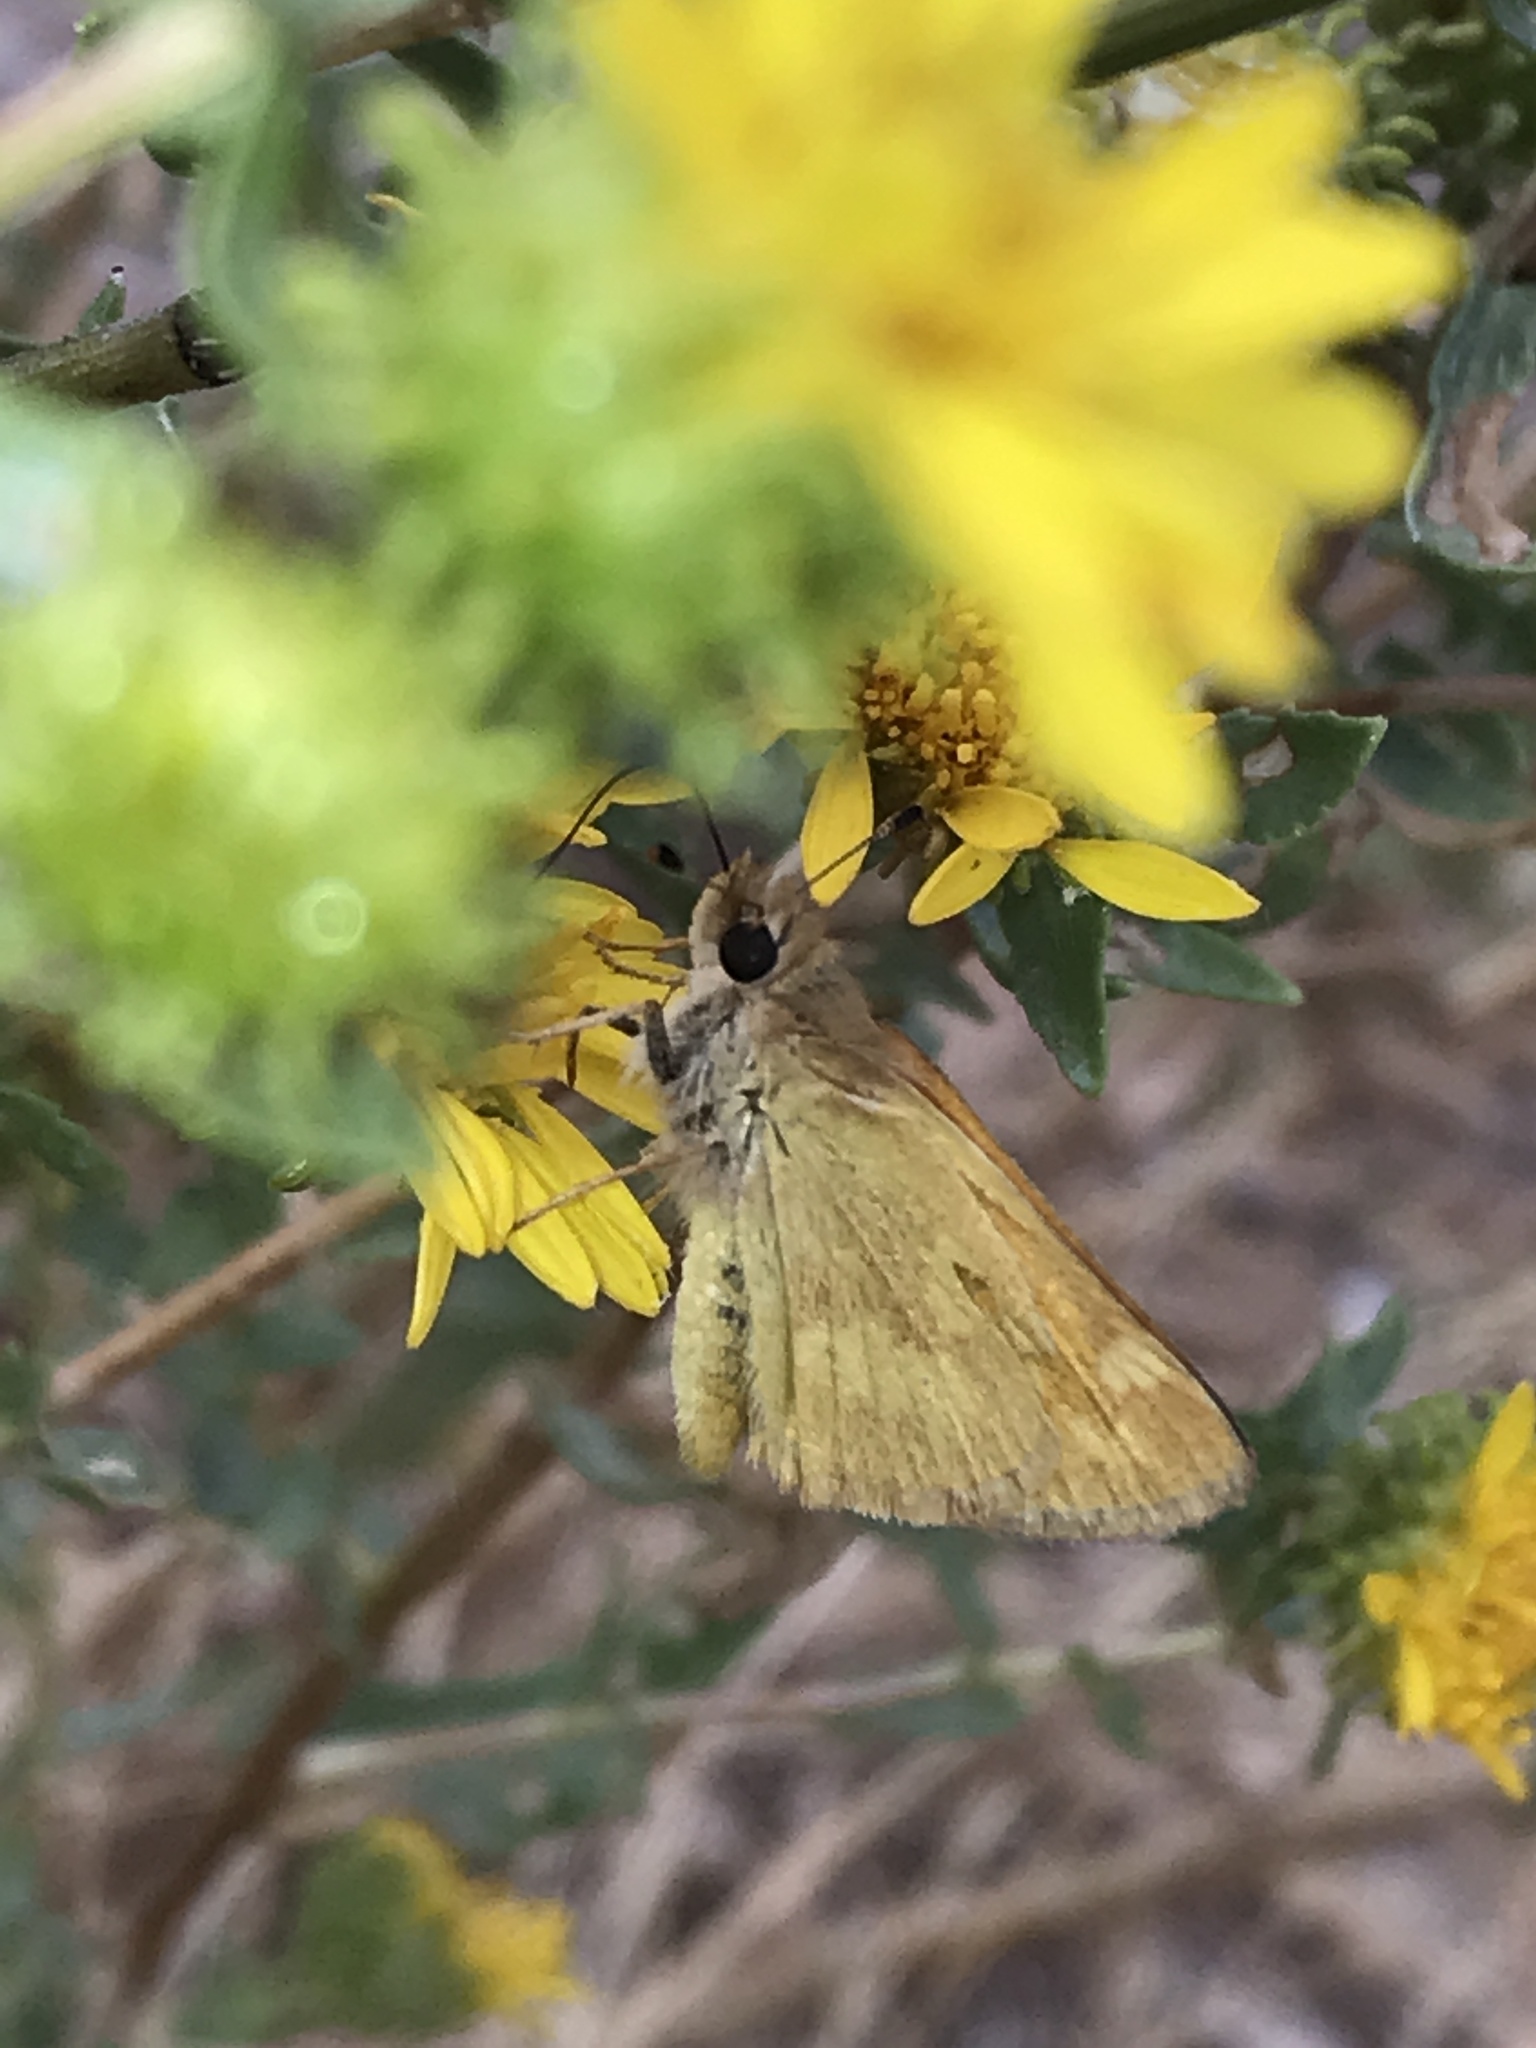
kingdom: Animalia
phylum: Arthropoda
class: Insecta
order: Lepidoptera
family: Hesperiidae
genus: Ochlodes
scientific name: Ochlodes sylvanoides
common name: Woodland skipper
